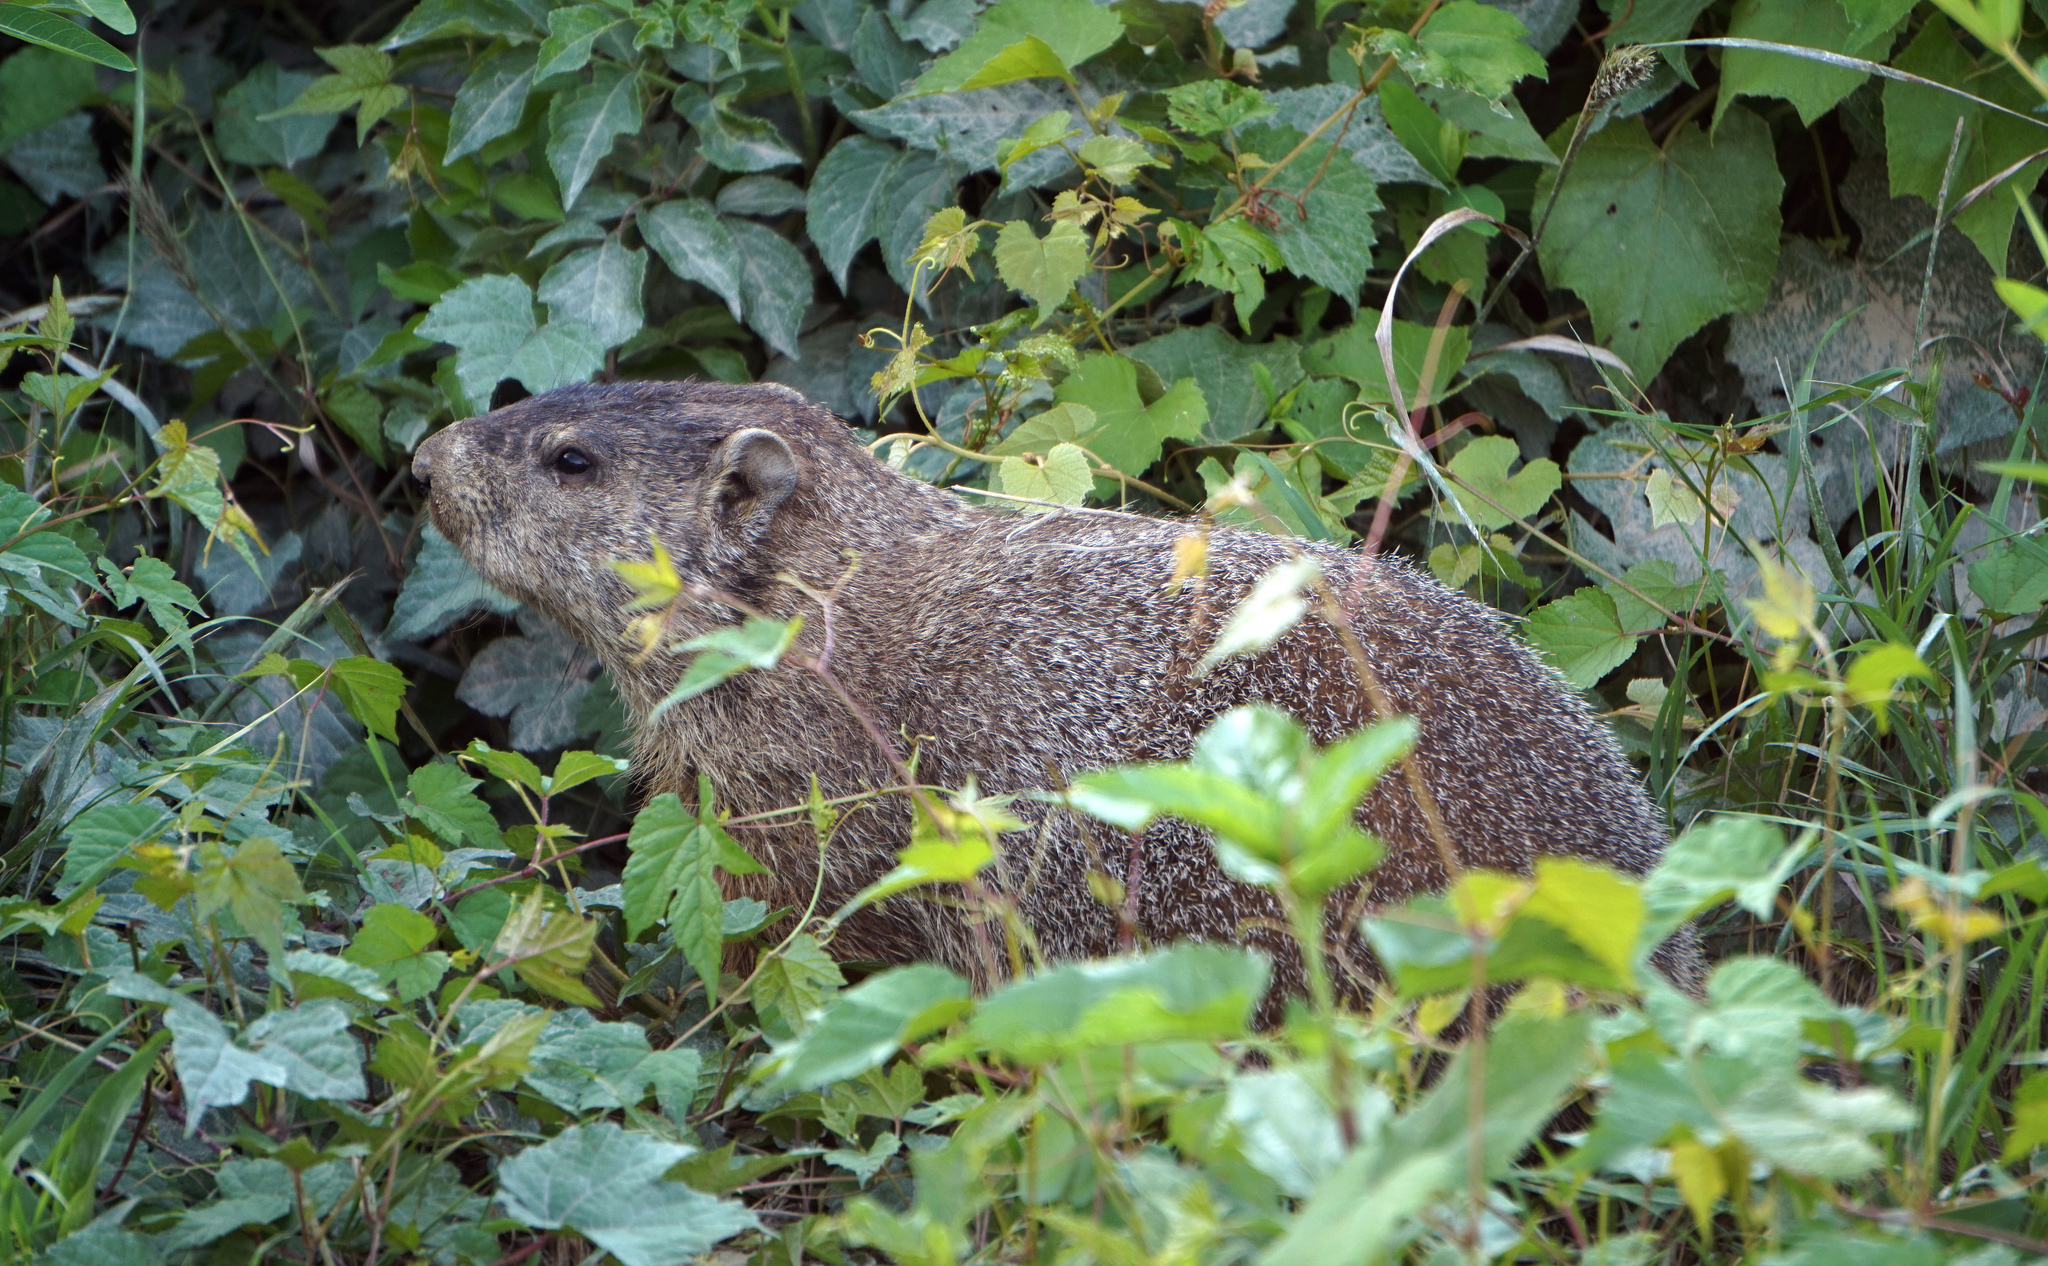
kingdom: Animalia
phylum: Chordata
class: Mammalia
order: Rodentia
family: Sciuridae
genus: Marmota
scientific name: Marmota monax
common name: Groundhog
